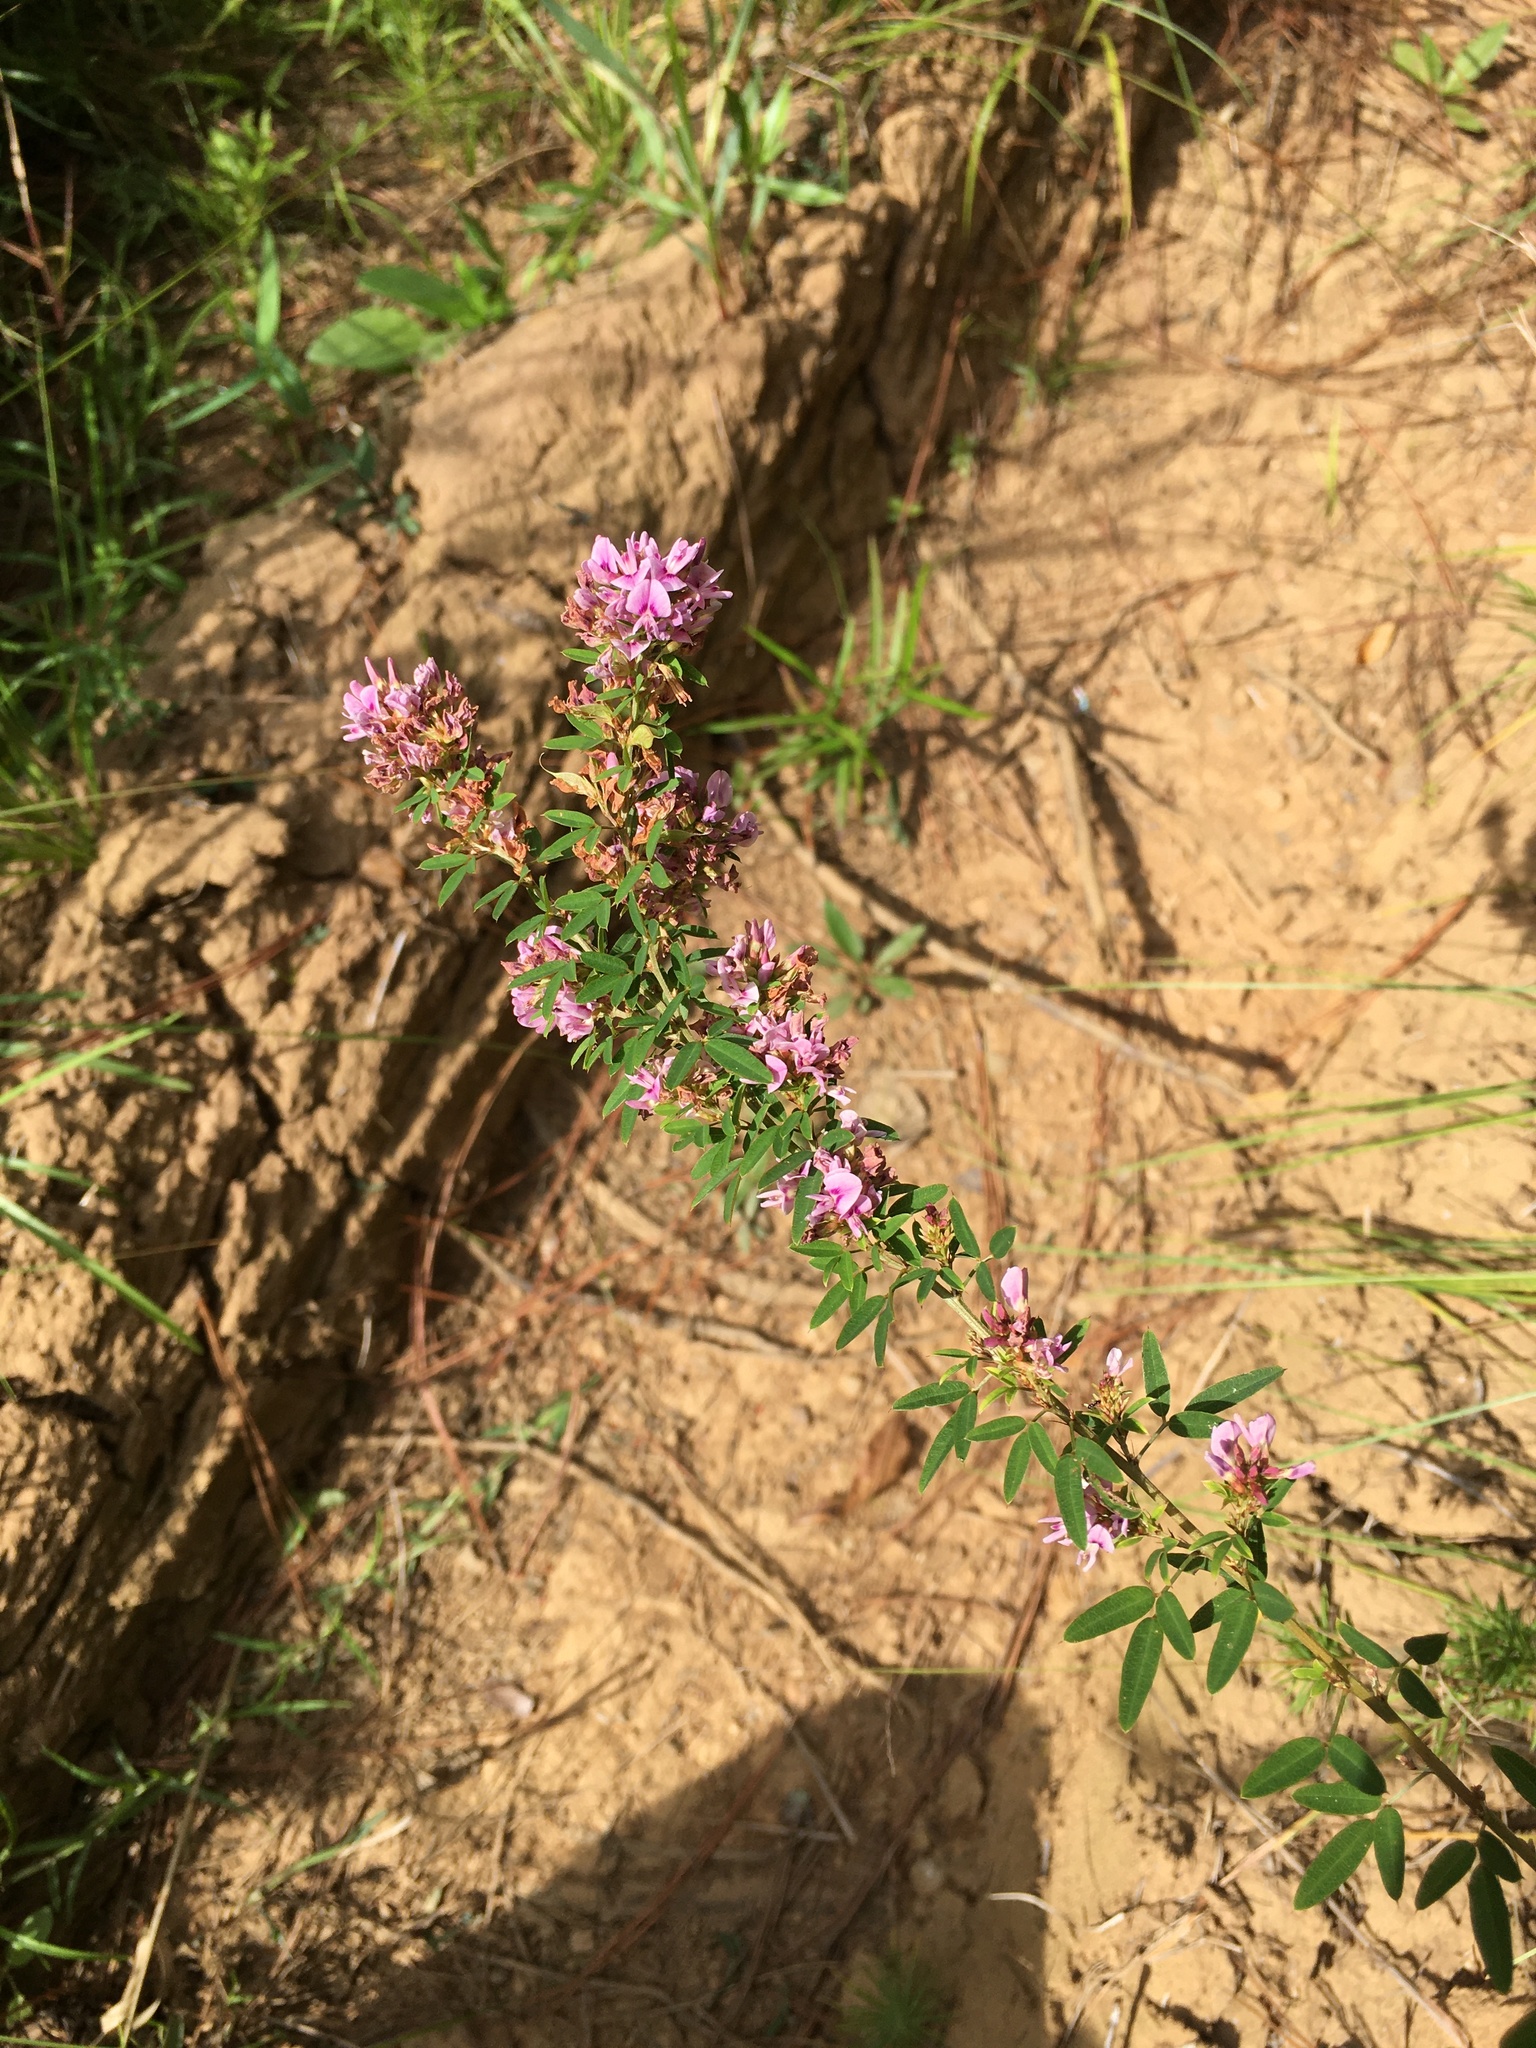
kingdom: Plantae
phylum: Tracheophyta
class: Magnoliopsida
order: Fabales
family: Fabaceae
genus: Lespedeza
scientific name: Lespedeza virginica
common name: Slender bush-clover
